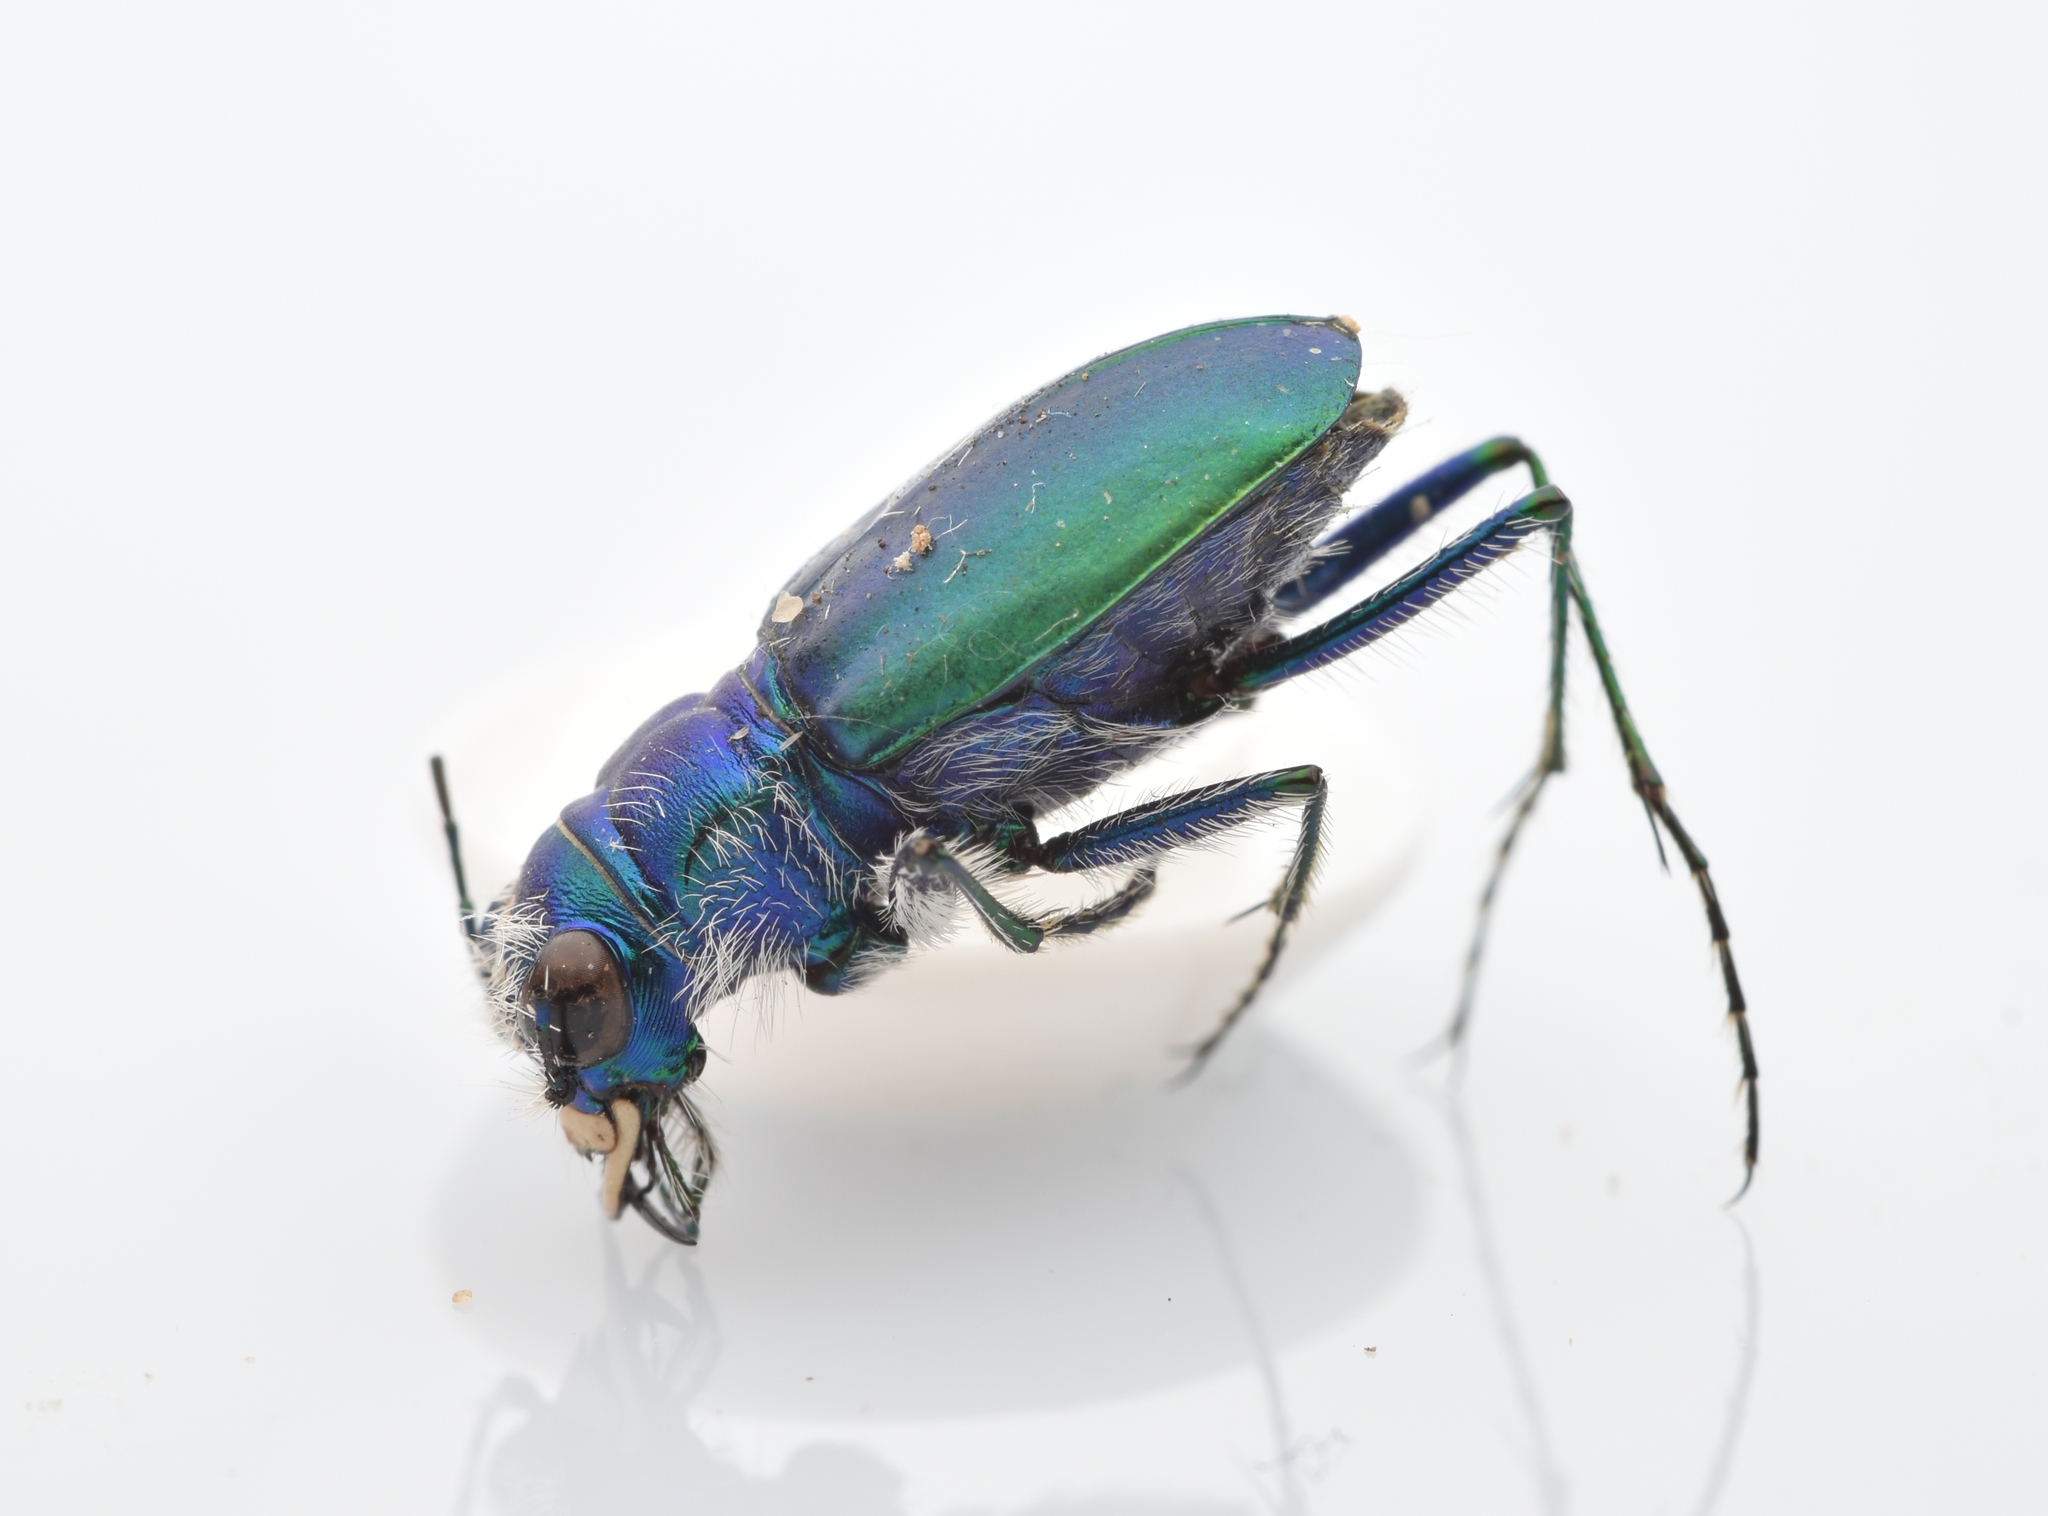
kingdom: Animalia
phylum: Arthropoda
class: Insecta
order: Coleoptera
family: Carabidae
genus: Cicindela
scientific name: Cicindela scutellaris
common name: Festive tiger beetle
